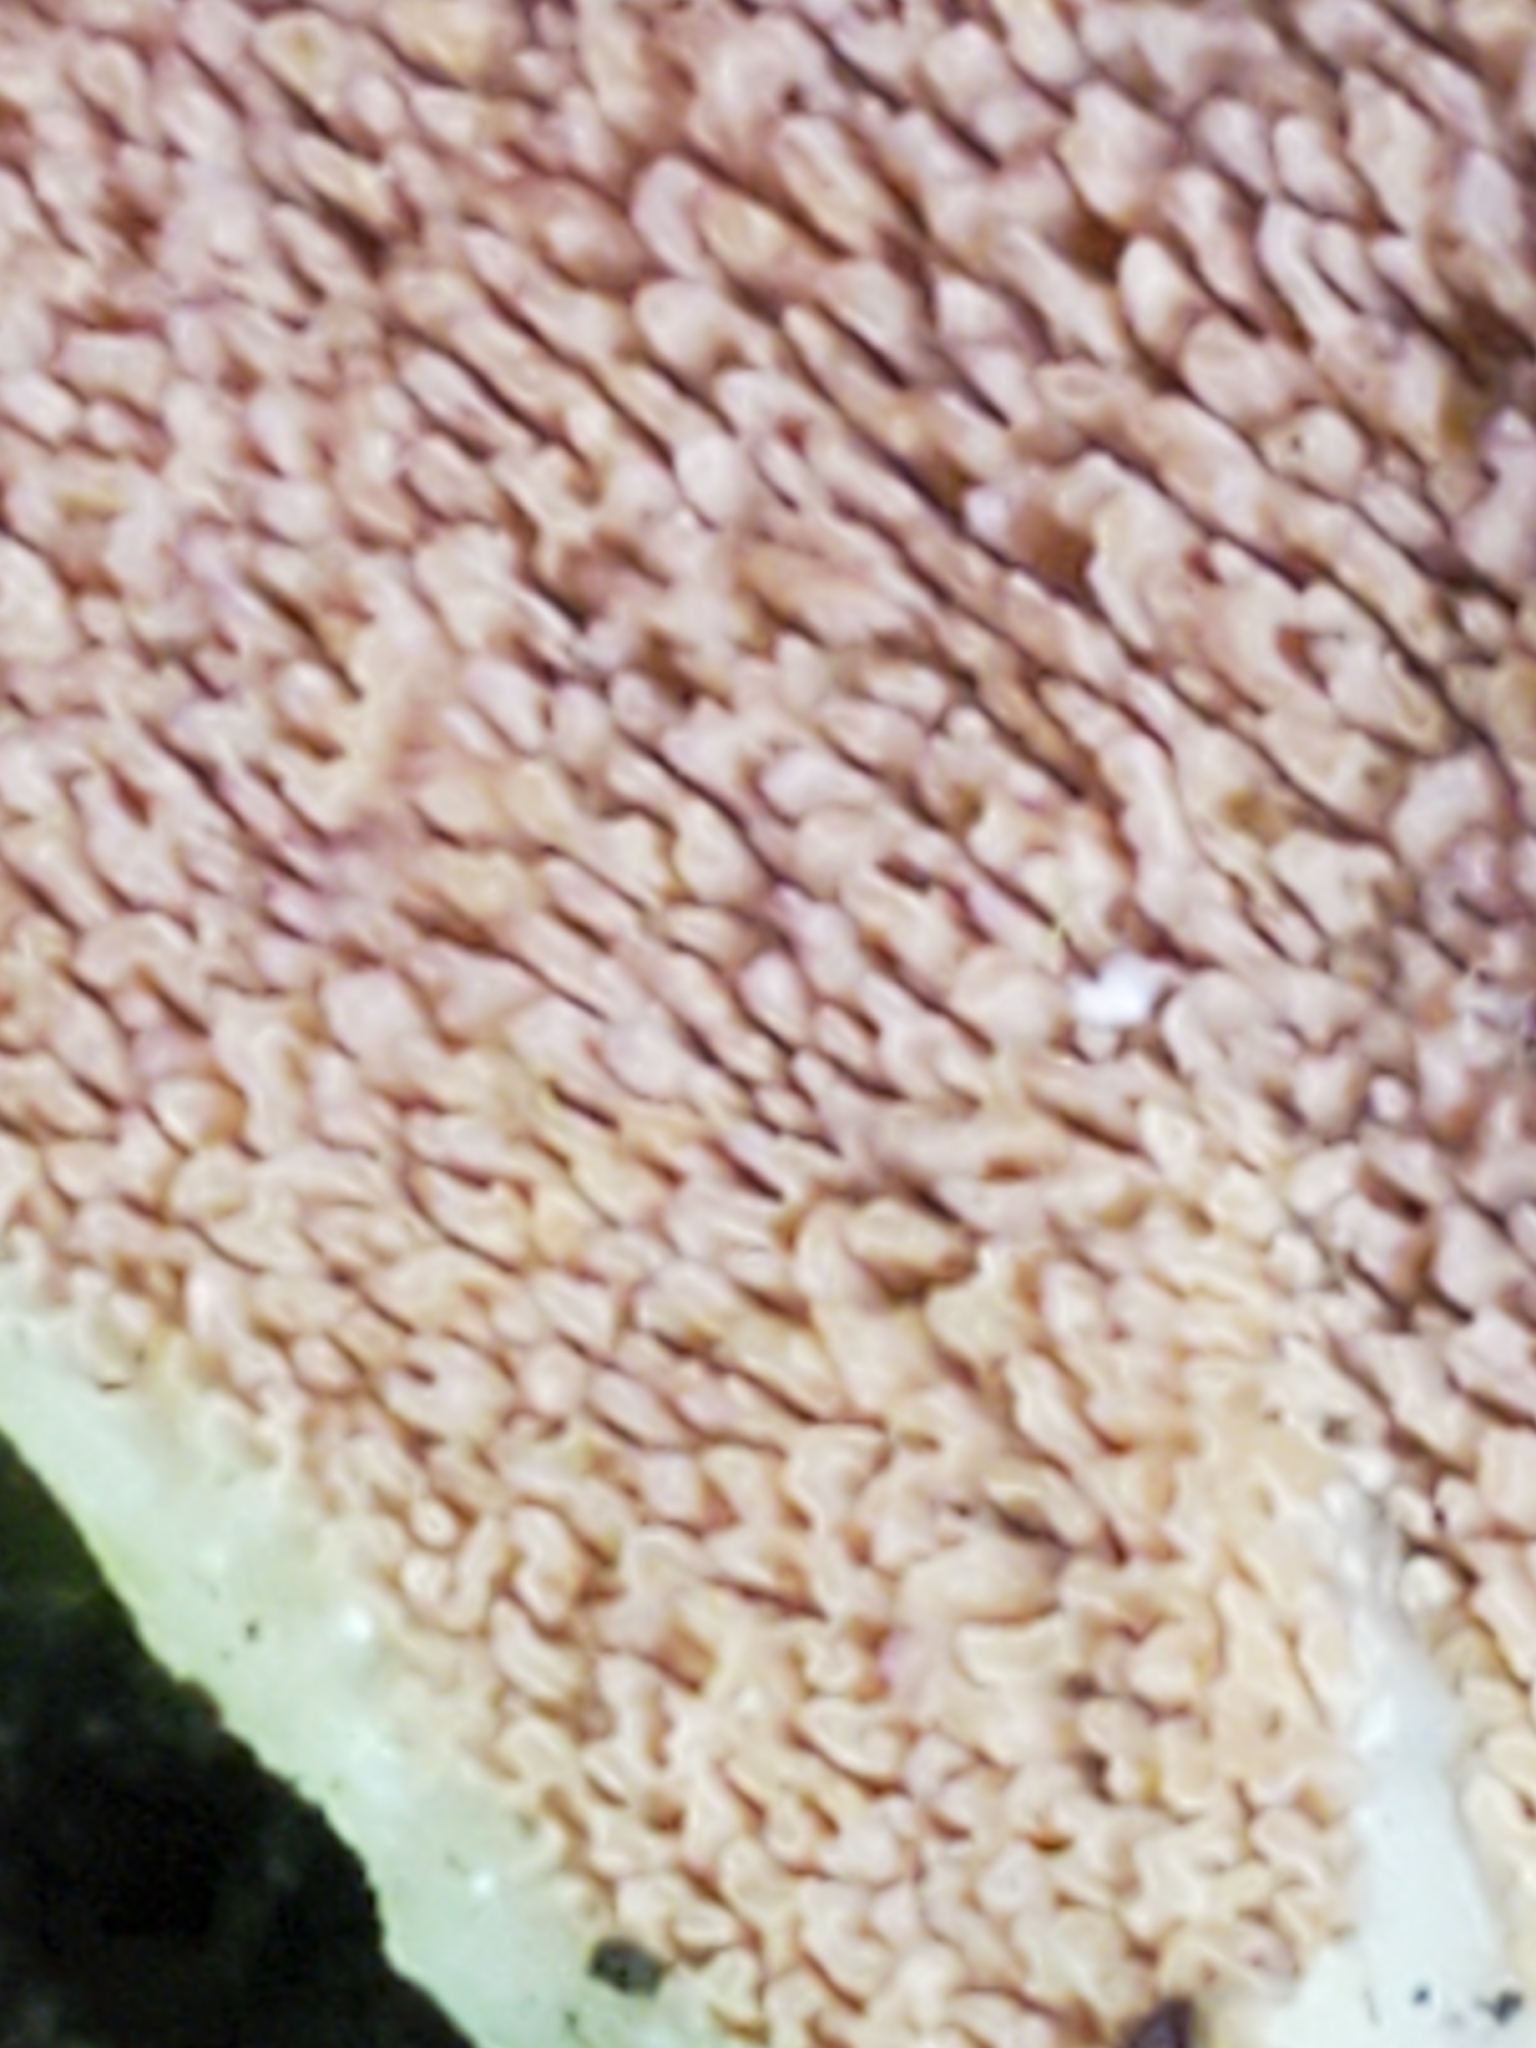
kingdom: Fungi
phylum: Basidiomycota
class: Agaricomycetes
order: Hymenochaetales
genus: Trichaptum
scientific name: Trichaptum biforme
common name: Violet-toothed polypore
